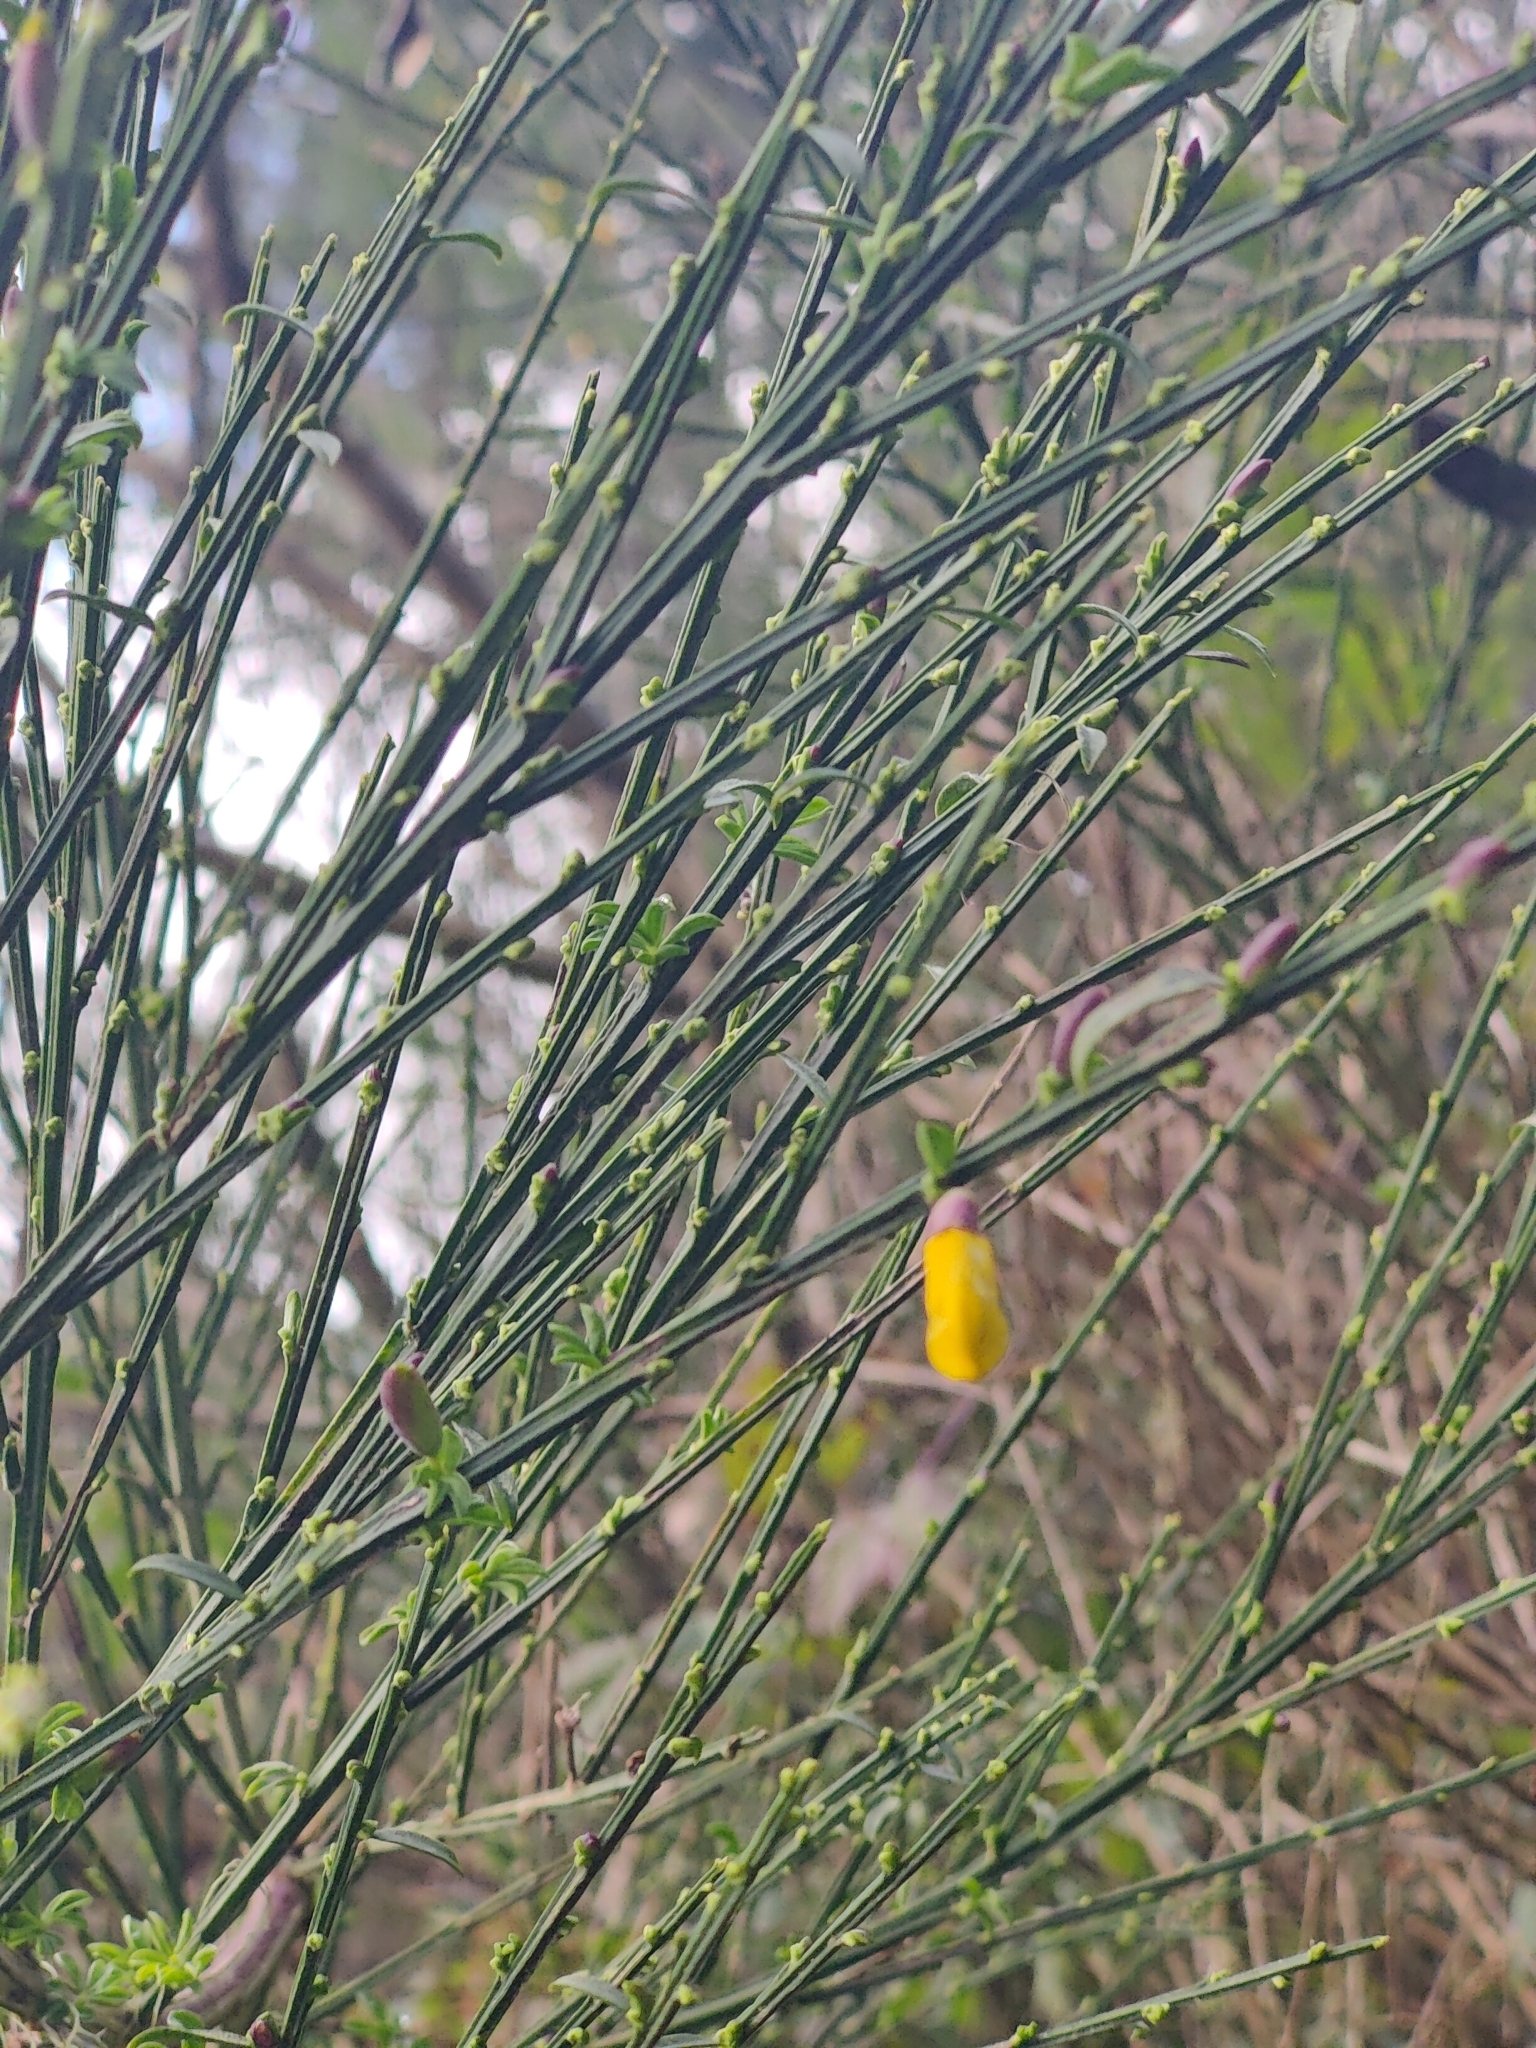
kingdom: Plantae
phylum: Tracheophyta
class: Magnoliopsida
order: Fabales
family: Fabaceae
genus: Cytisus
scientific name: Cytisus scoparius
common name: Scotch broom
